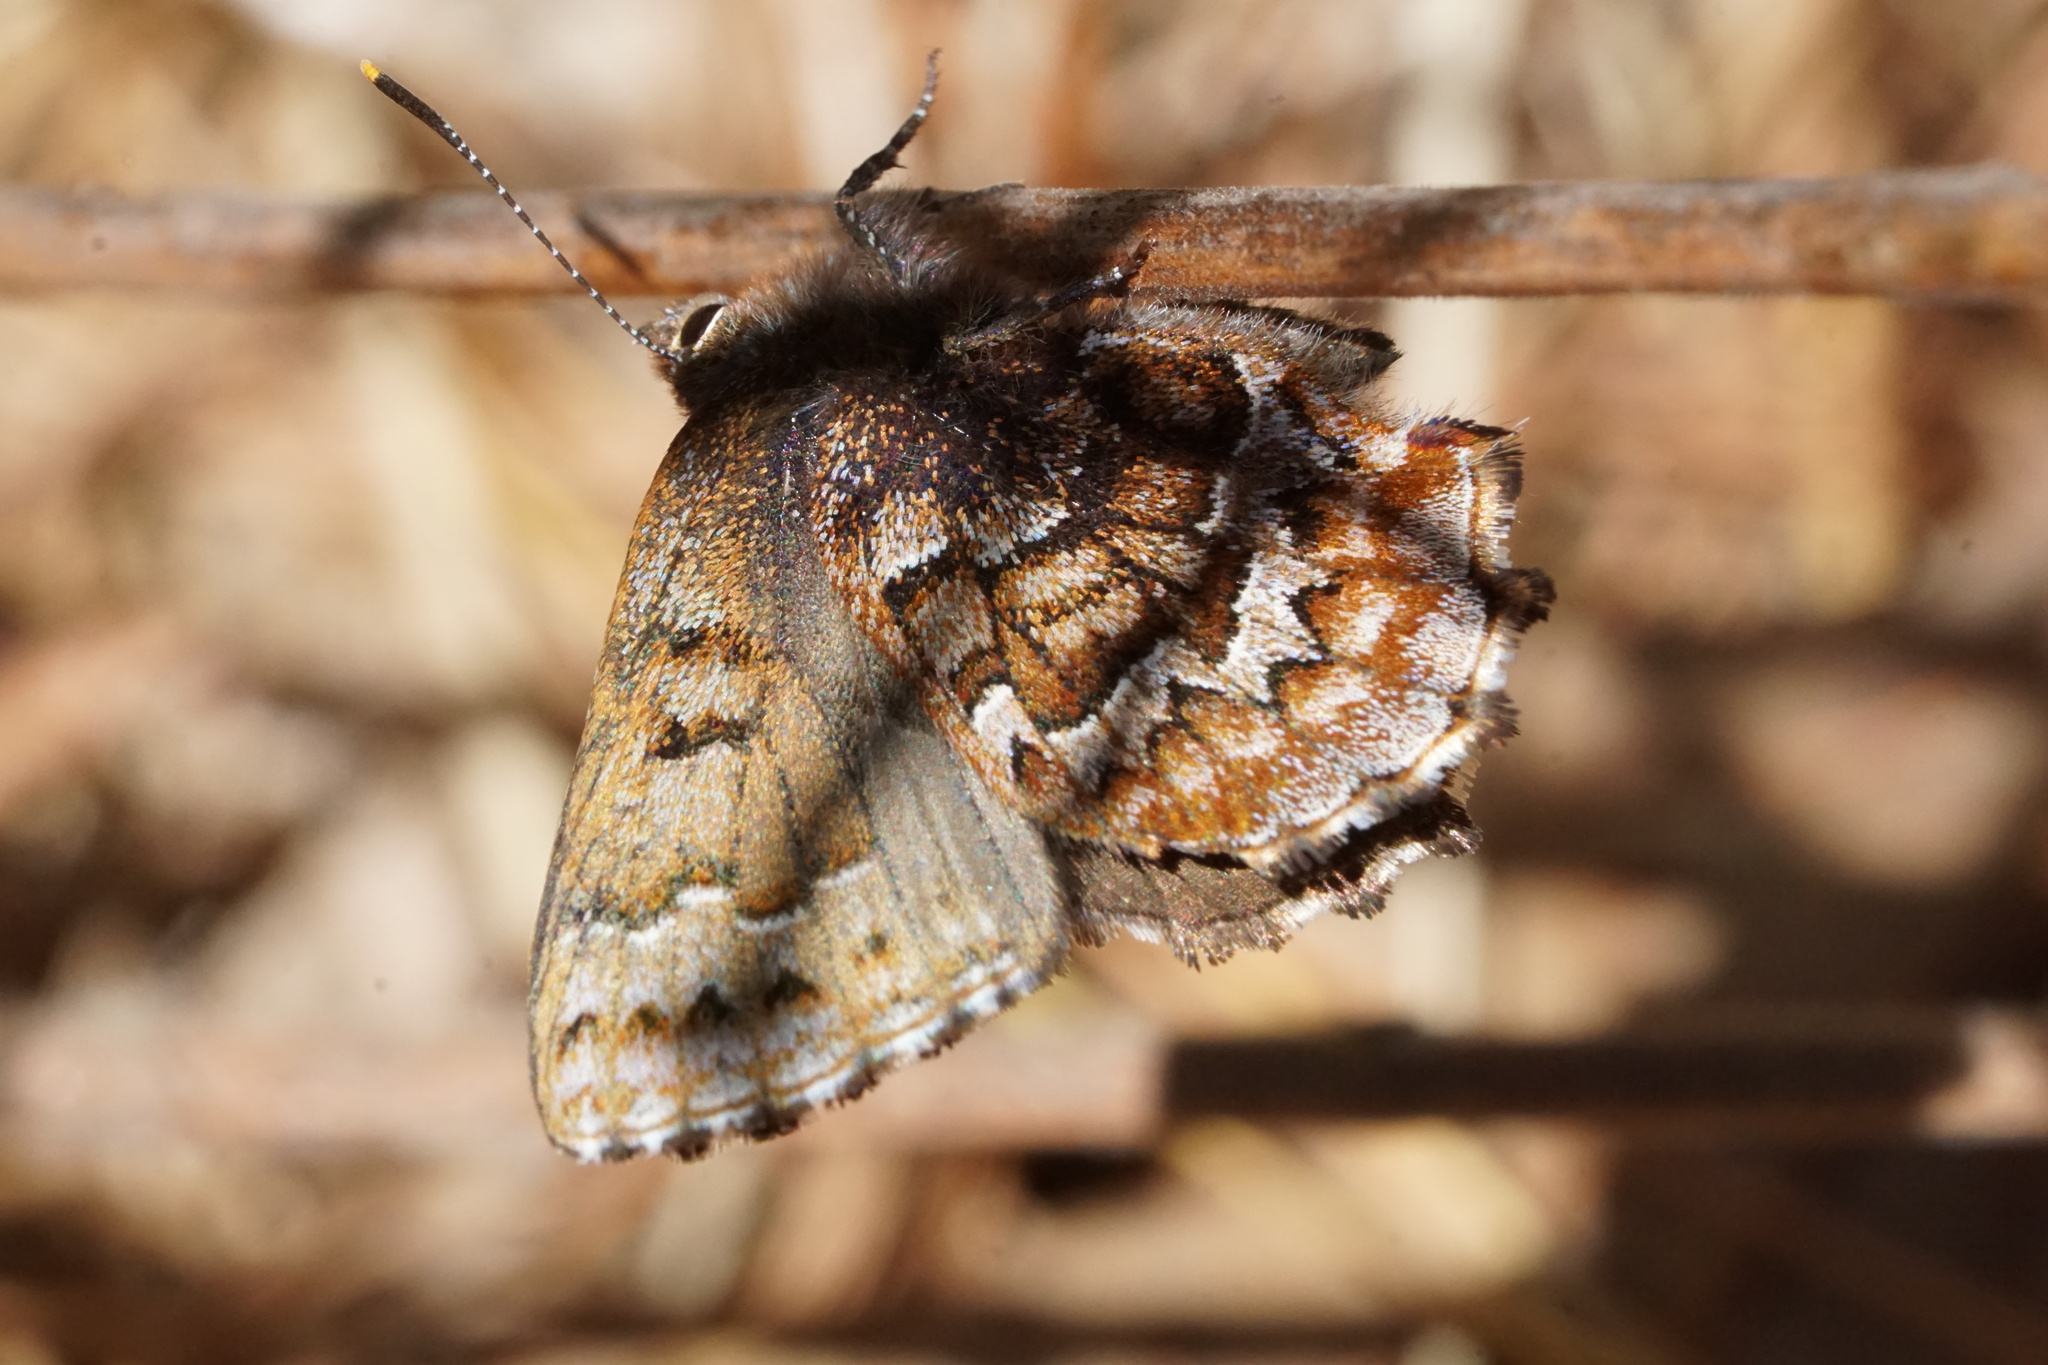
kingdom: Animalia
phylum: Arthropoda
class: Insecta
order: Lepidoptera
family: Lycaenidae
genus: Incisalia
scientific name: Incisalia niphon
